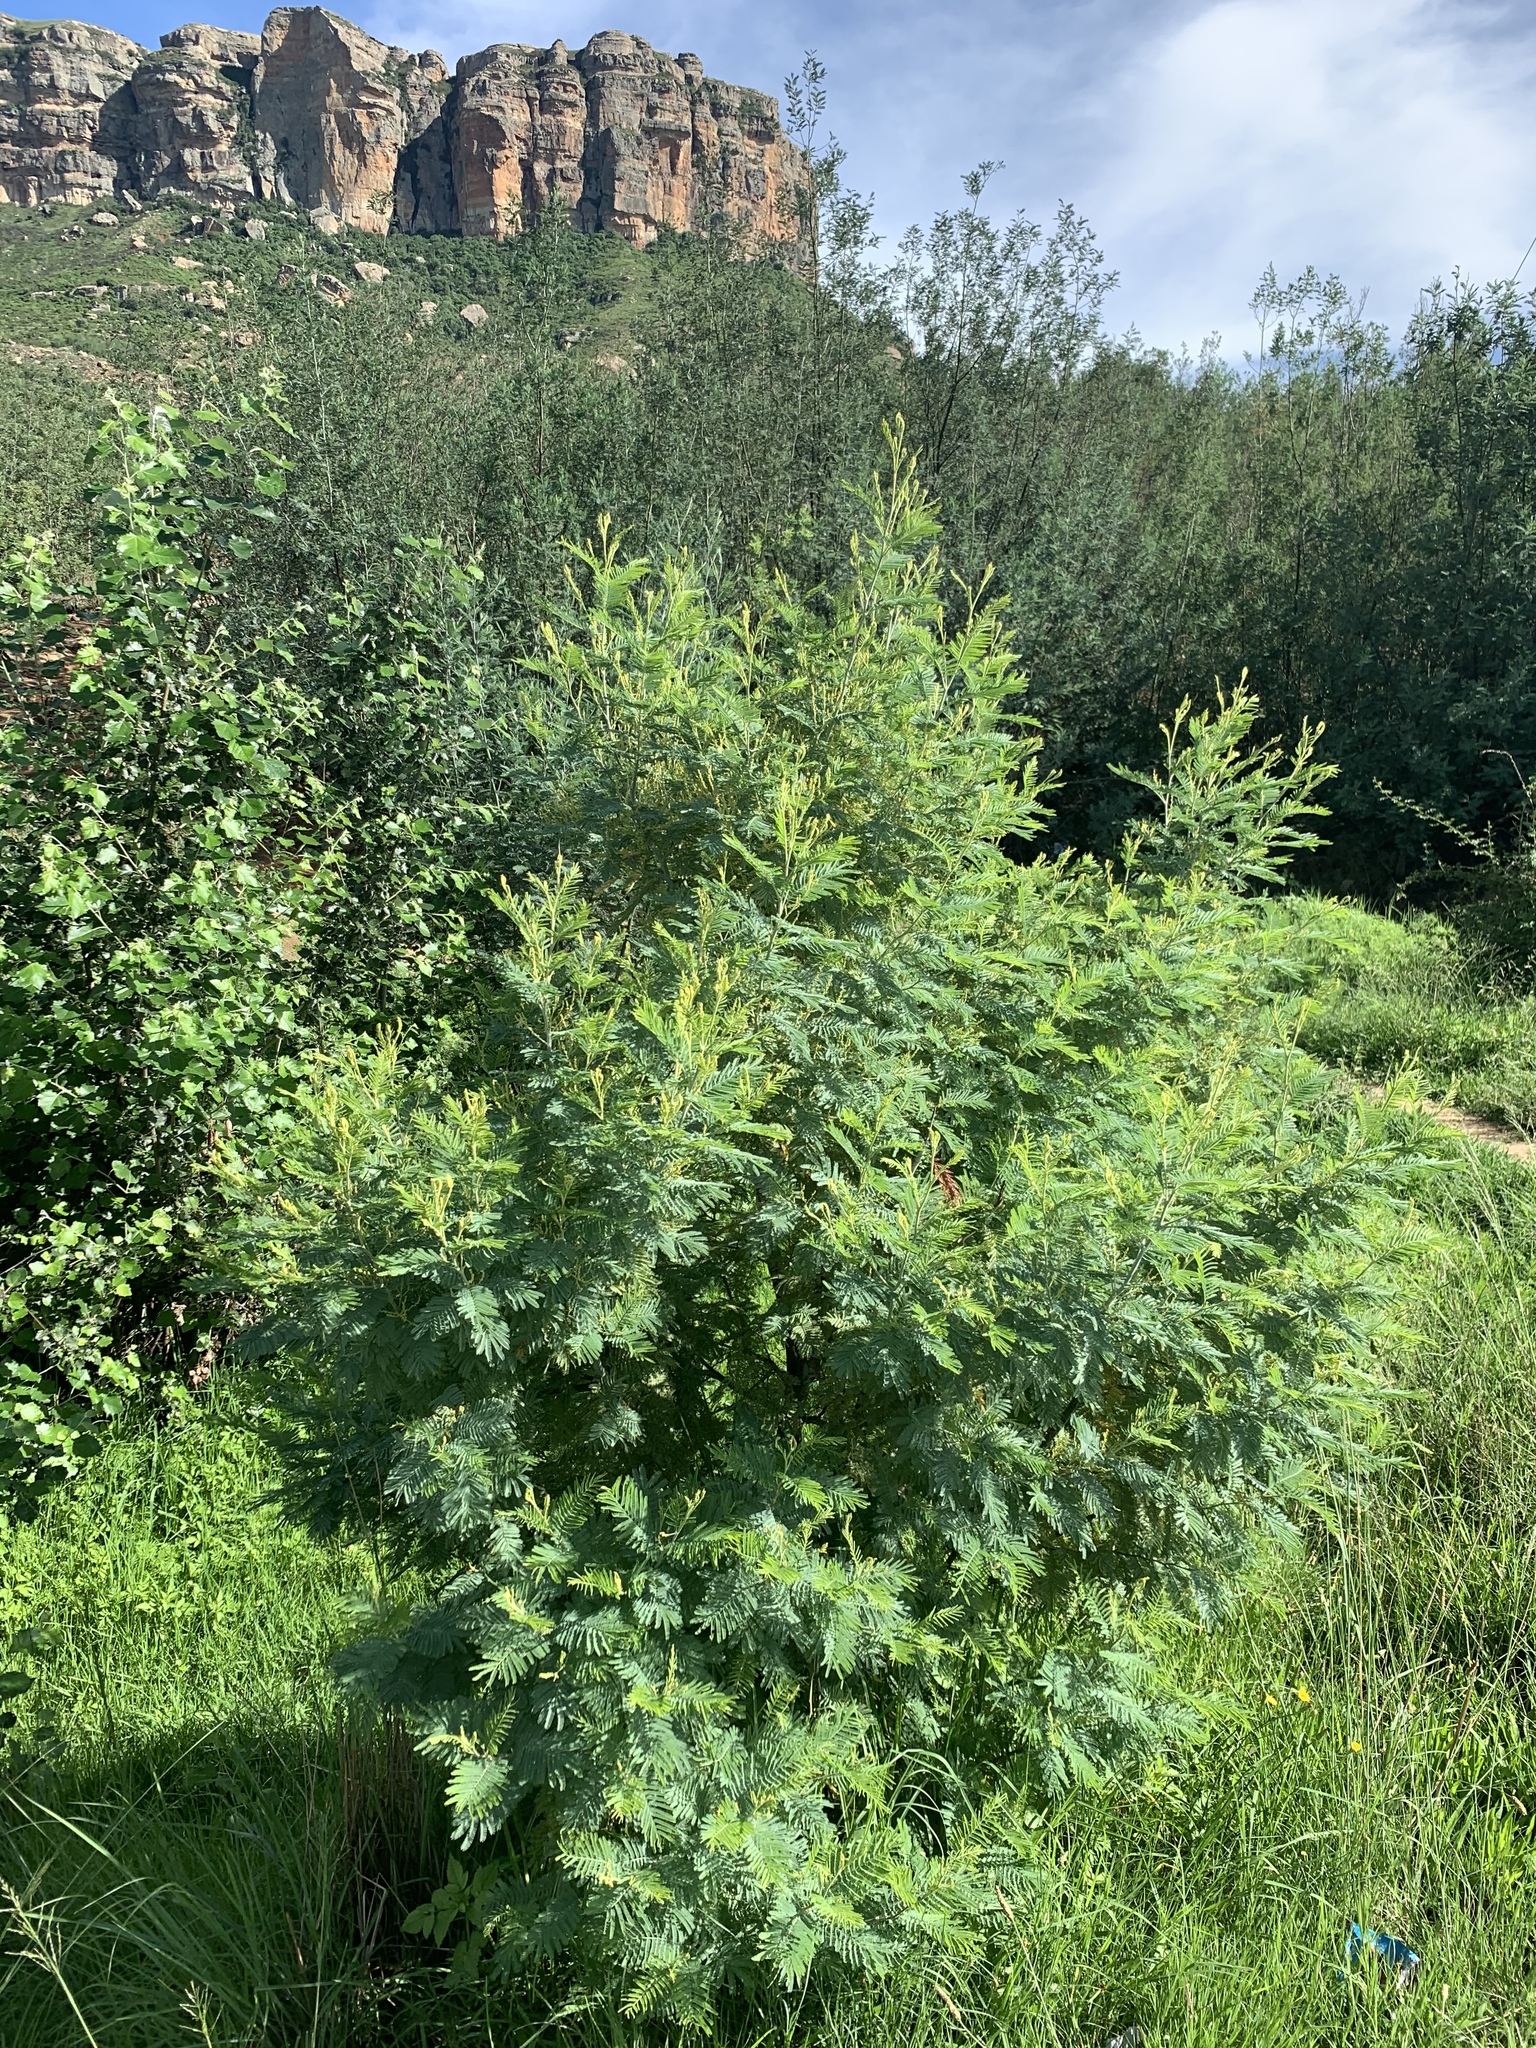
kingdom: Plantae
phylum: Tracheophyta
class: Magnoliopsida
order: Fabales
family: Fabaceae
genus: Acacia
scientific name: Acacia dealbata
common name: Silver wattle
